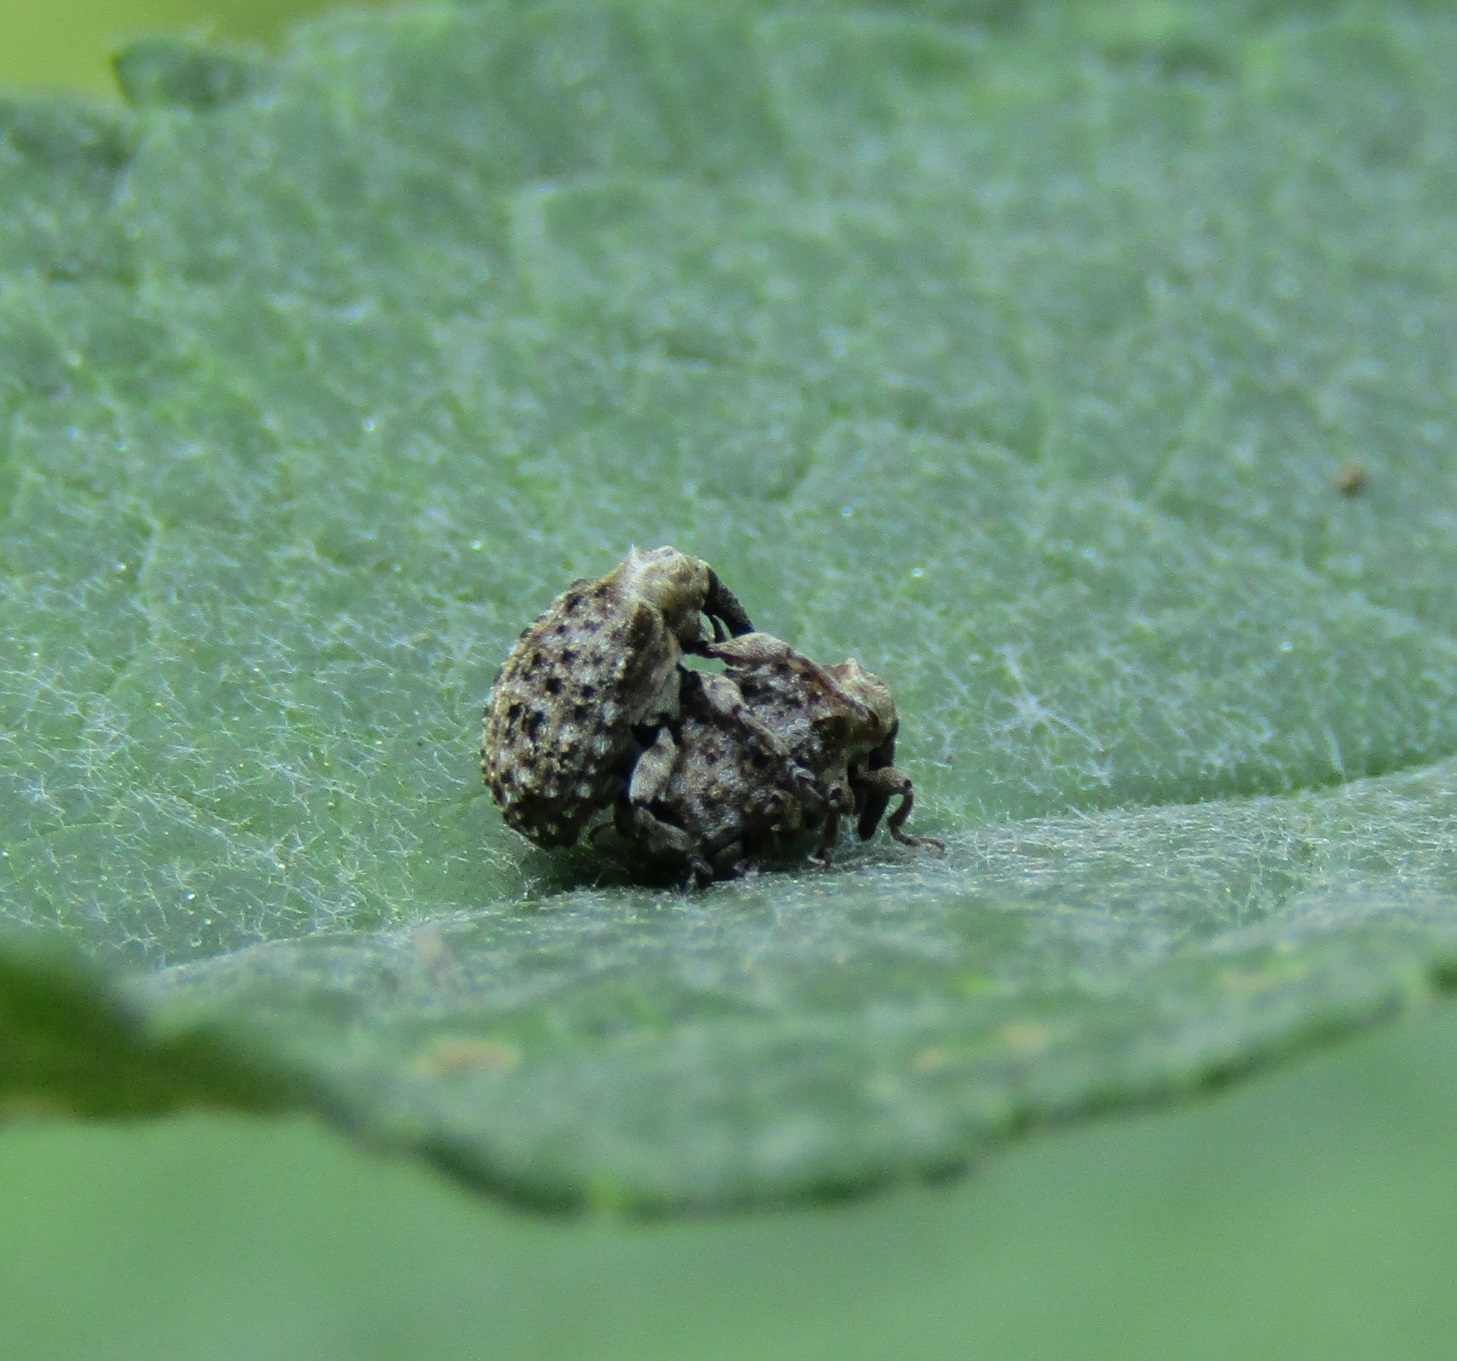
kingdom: Animalia
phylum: Arthropoda
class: Insecta
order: Coleoptera
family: Curculionidae
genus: Cleopus
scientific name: Cleopus japonicus
